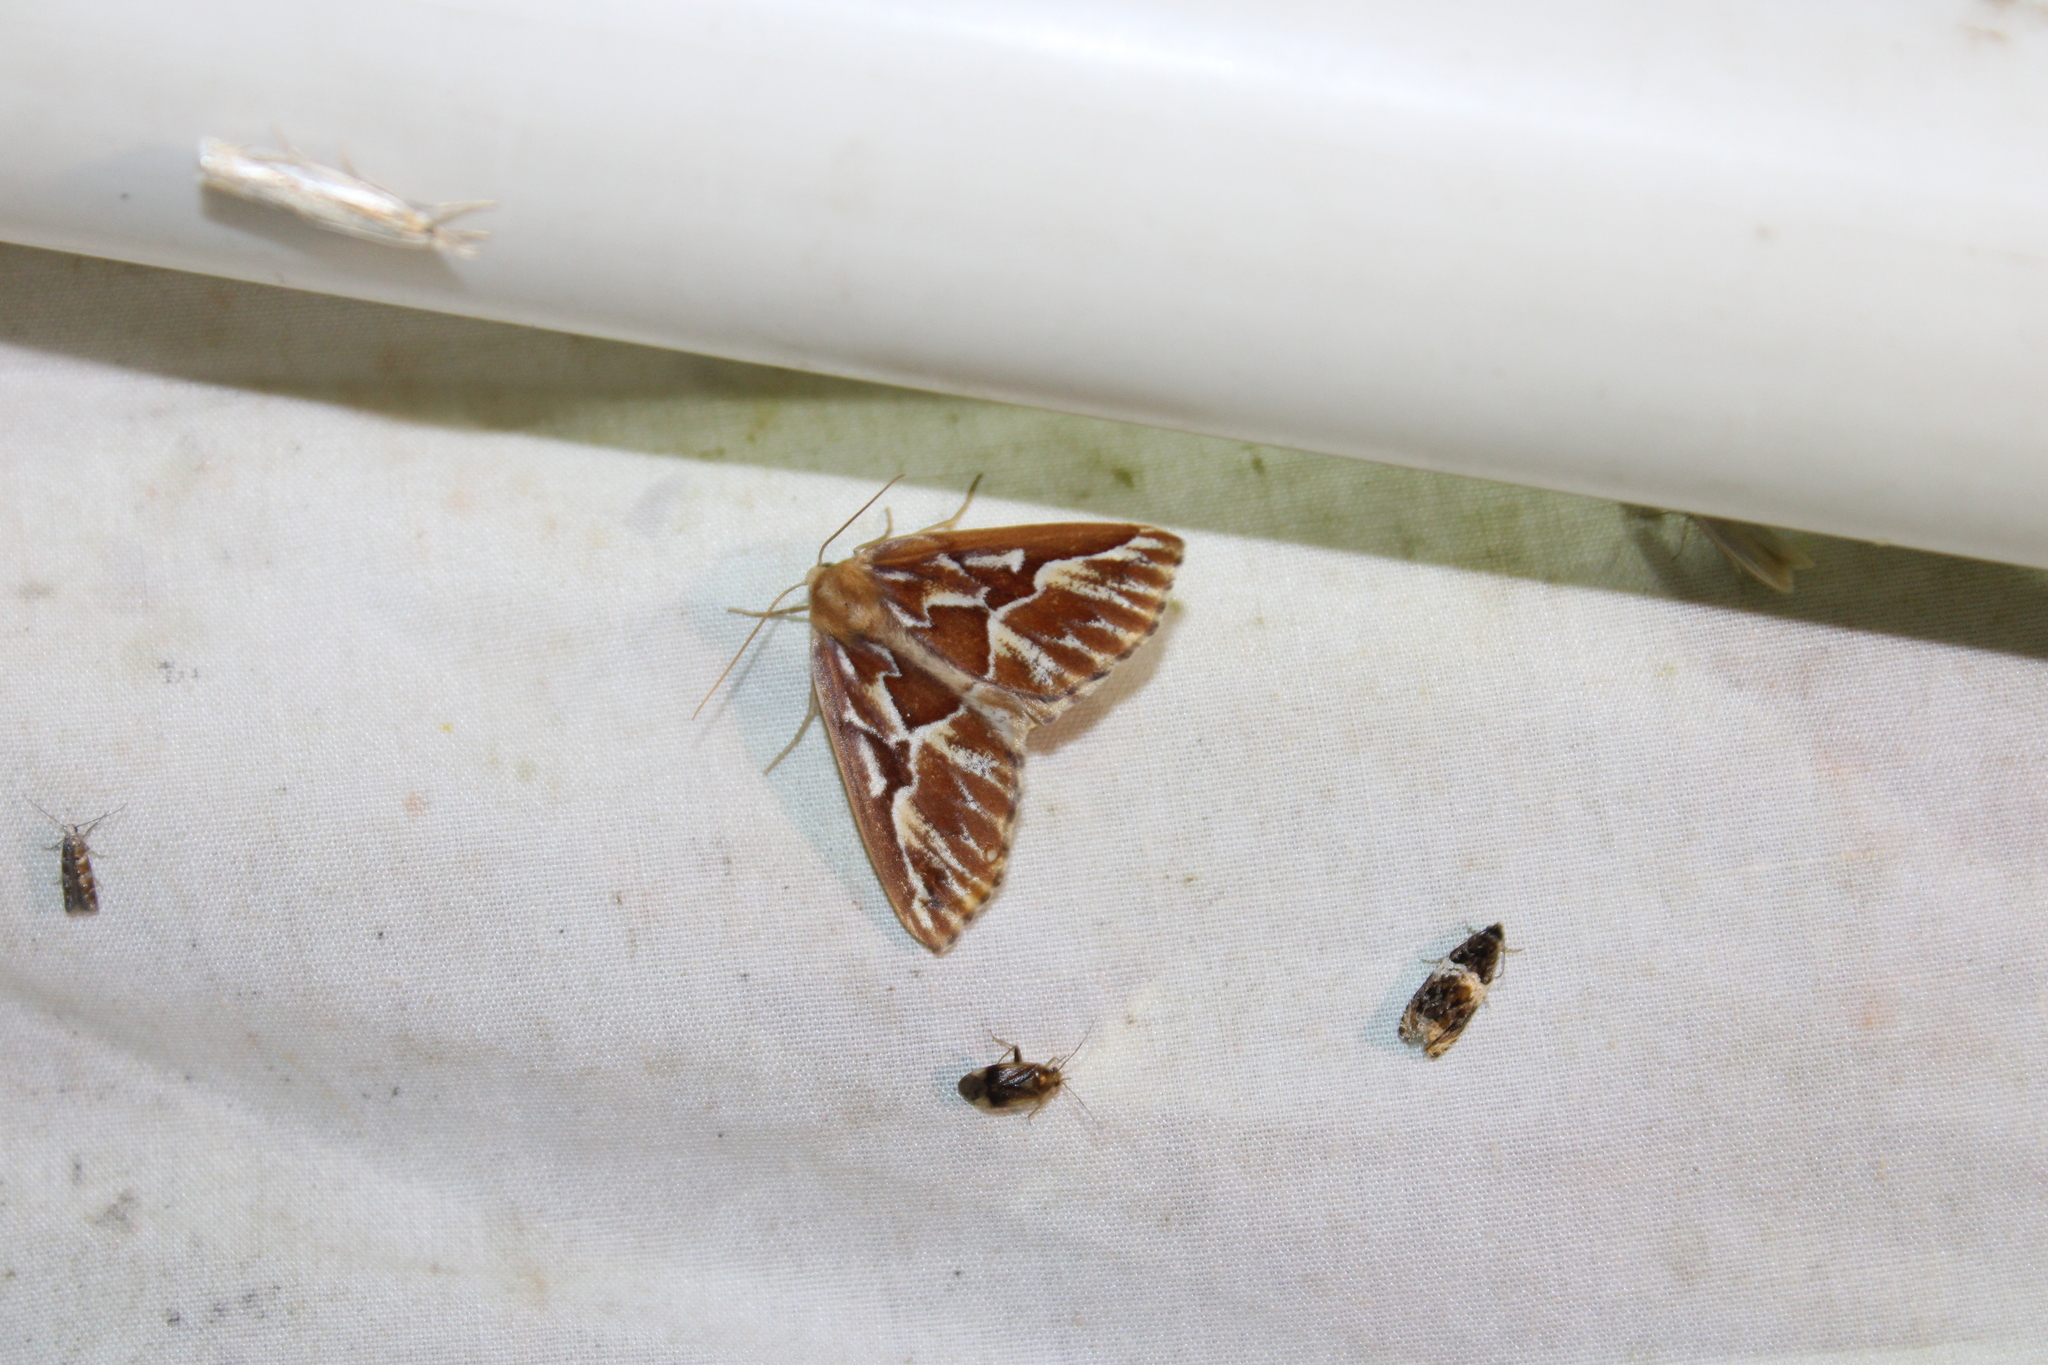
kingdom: Animalia
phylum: Arthropoda
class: Insecta
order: Lepidoptera
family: Geometridae
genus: Caripeta
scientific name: Caripeta piniata
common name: Northern pine looper moth
